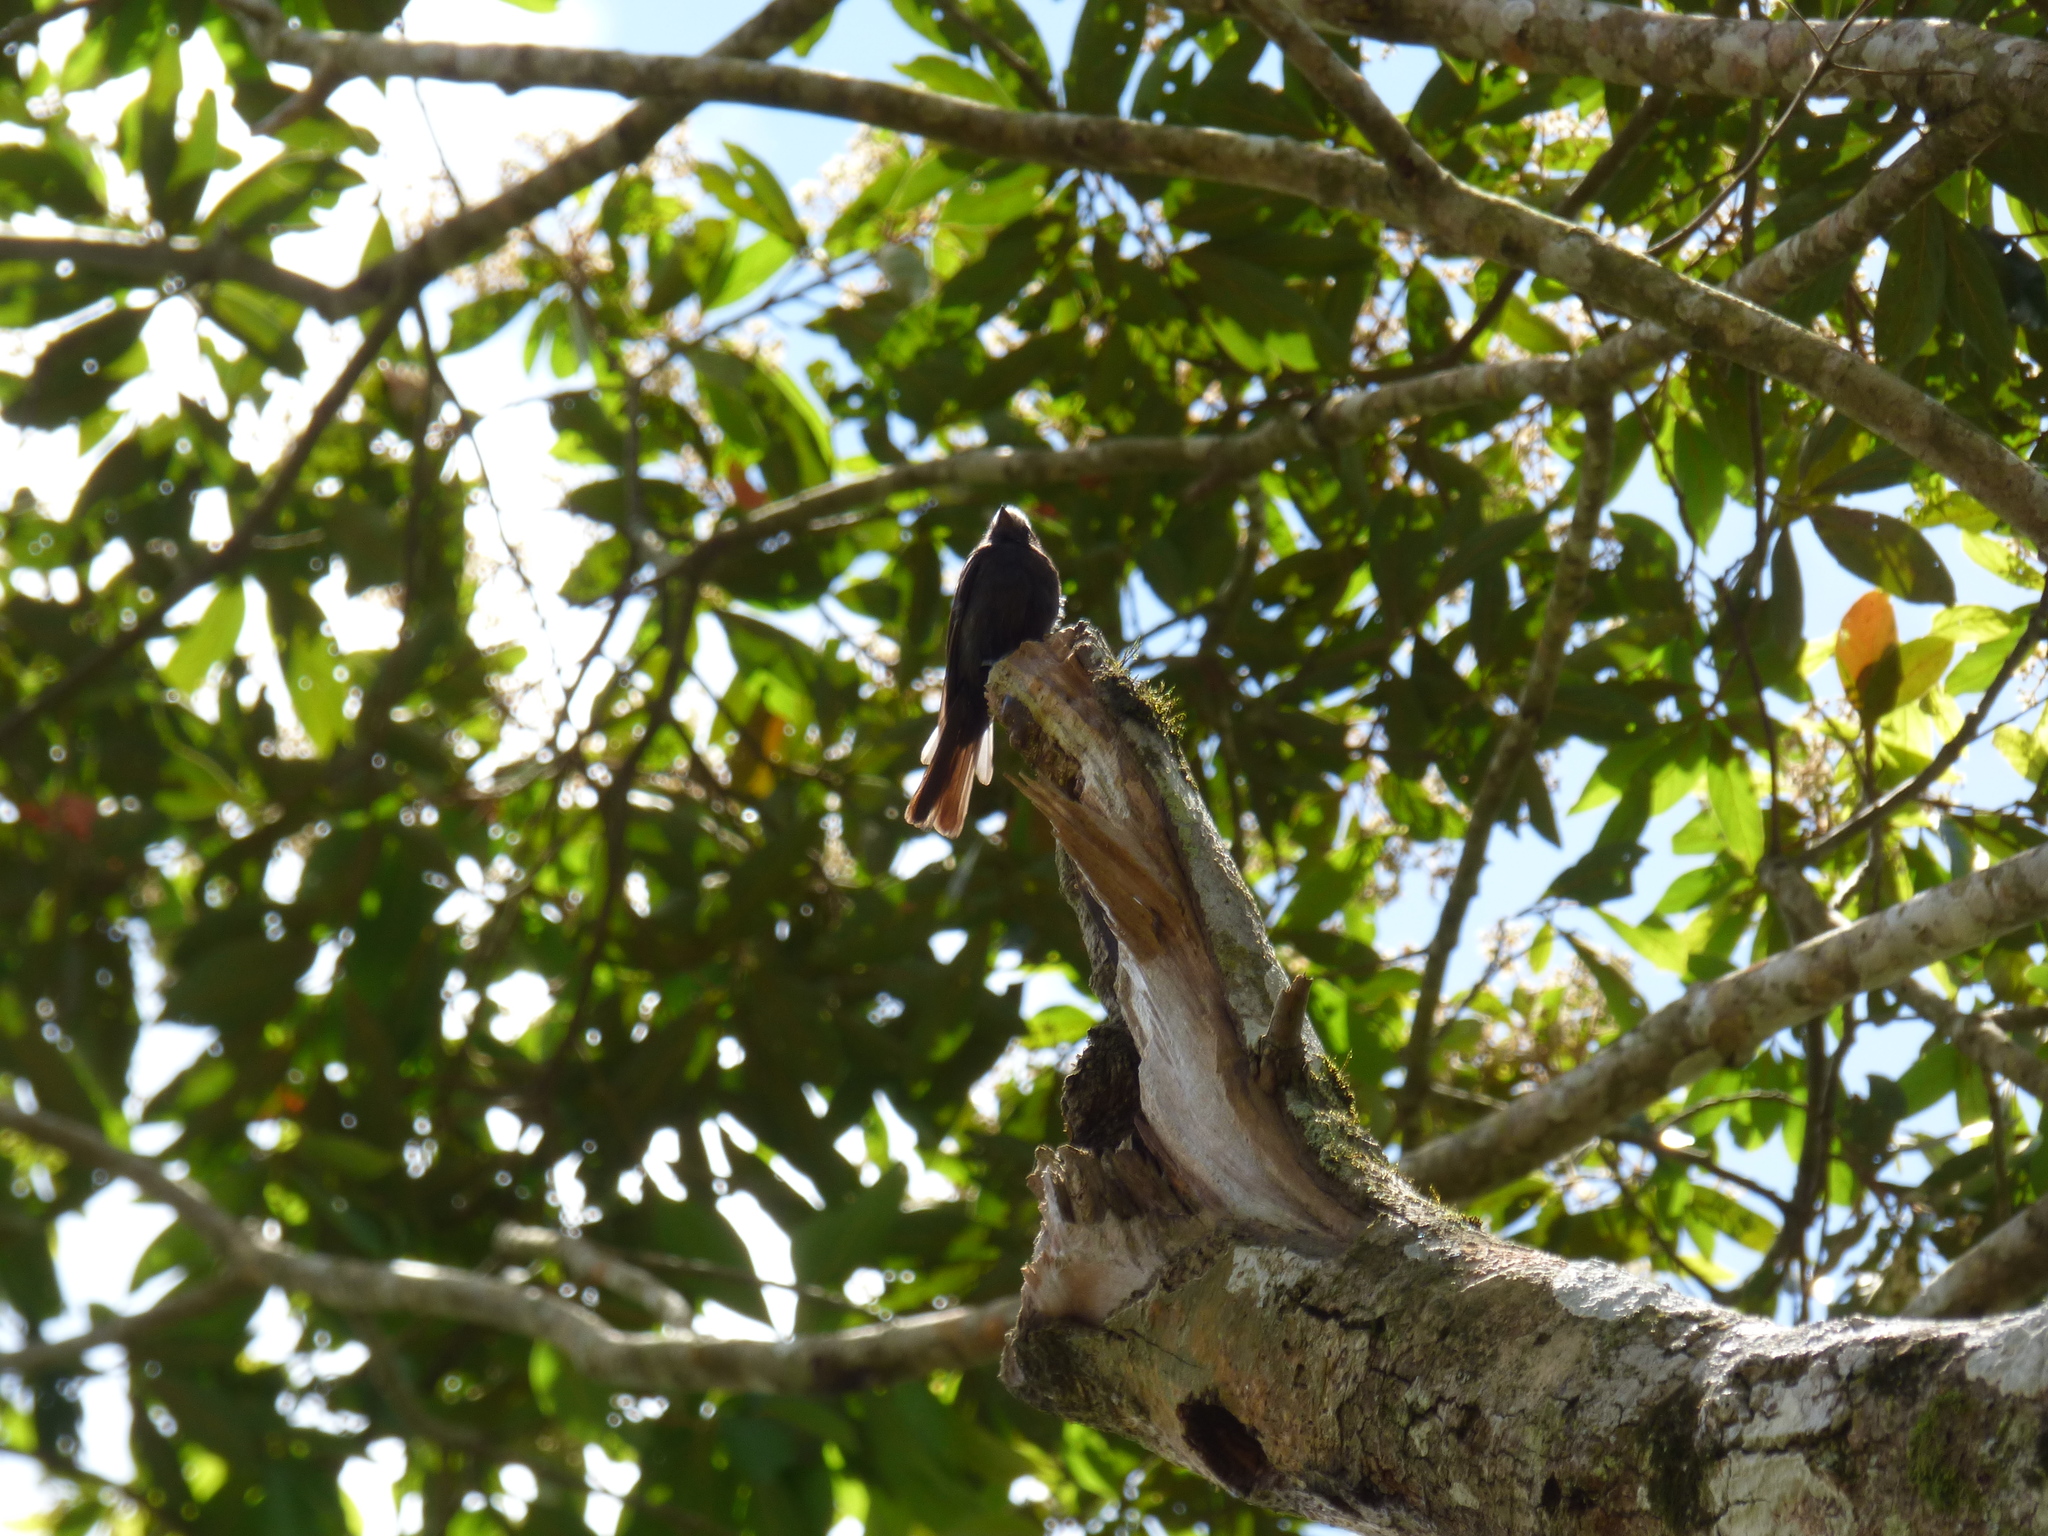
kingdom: Animalia
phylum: Chordata
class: Aves
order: Passeriformes
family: Tyrannidae
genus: Colonia
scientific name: Colonia colonus
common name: Long-tailed tyrant
